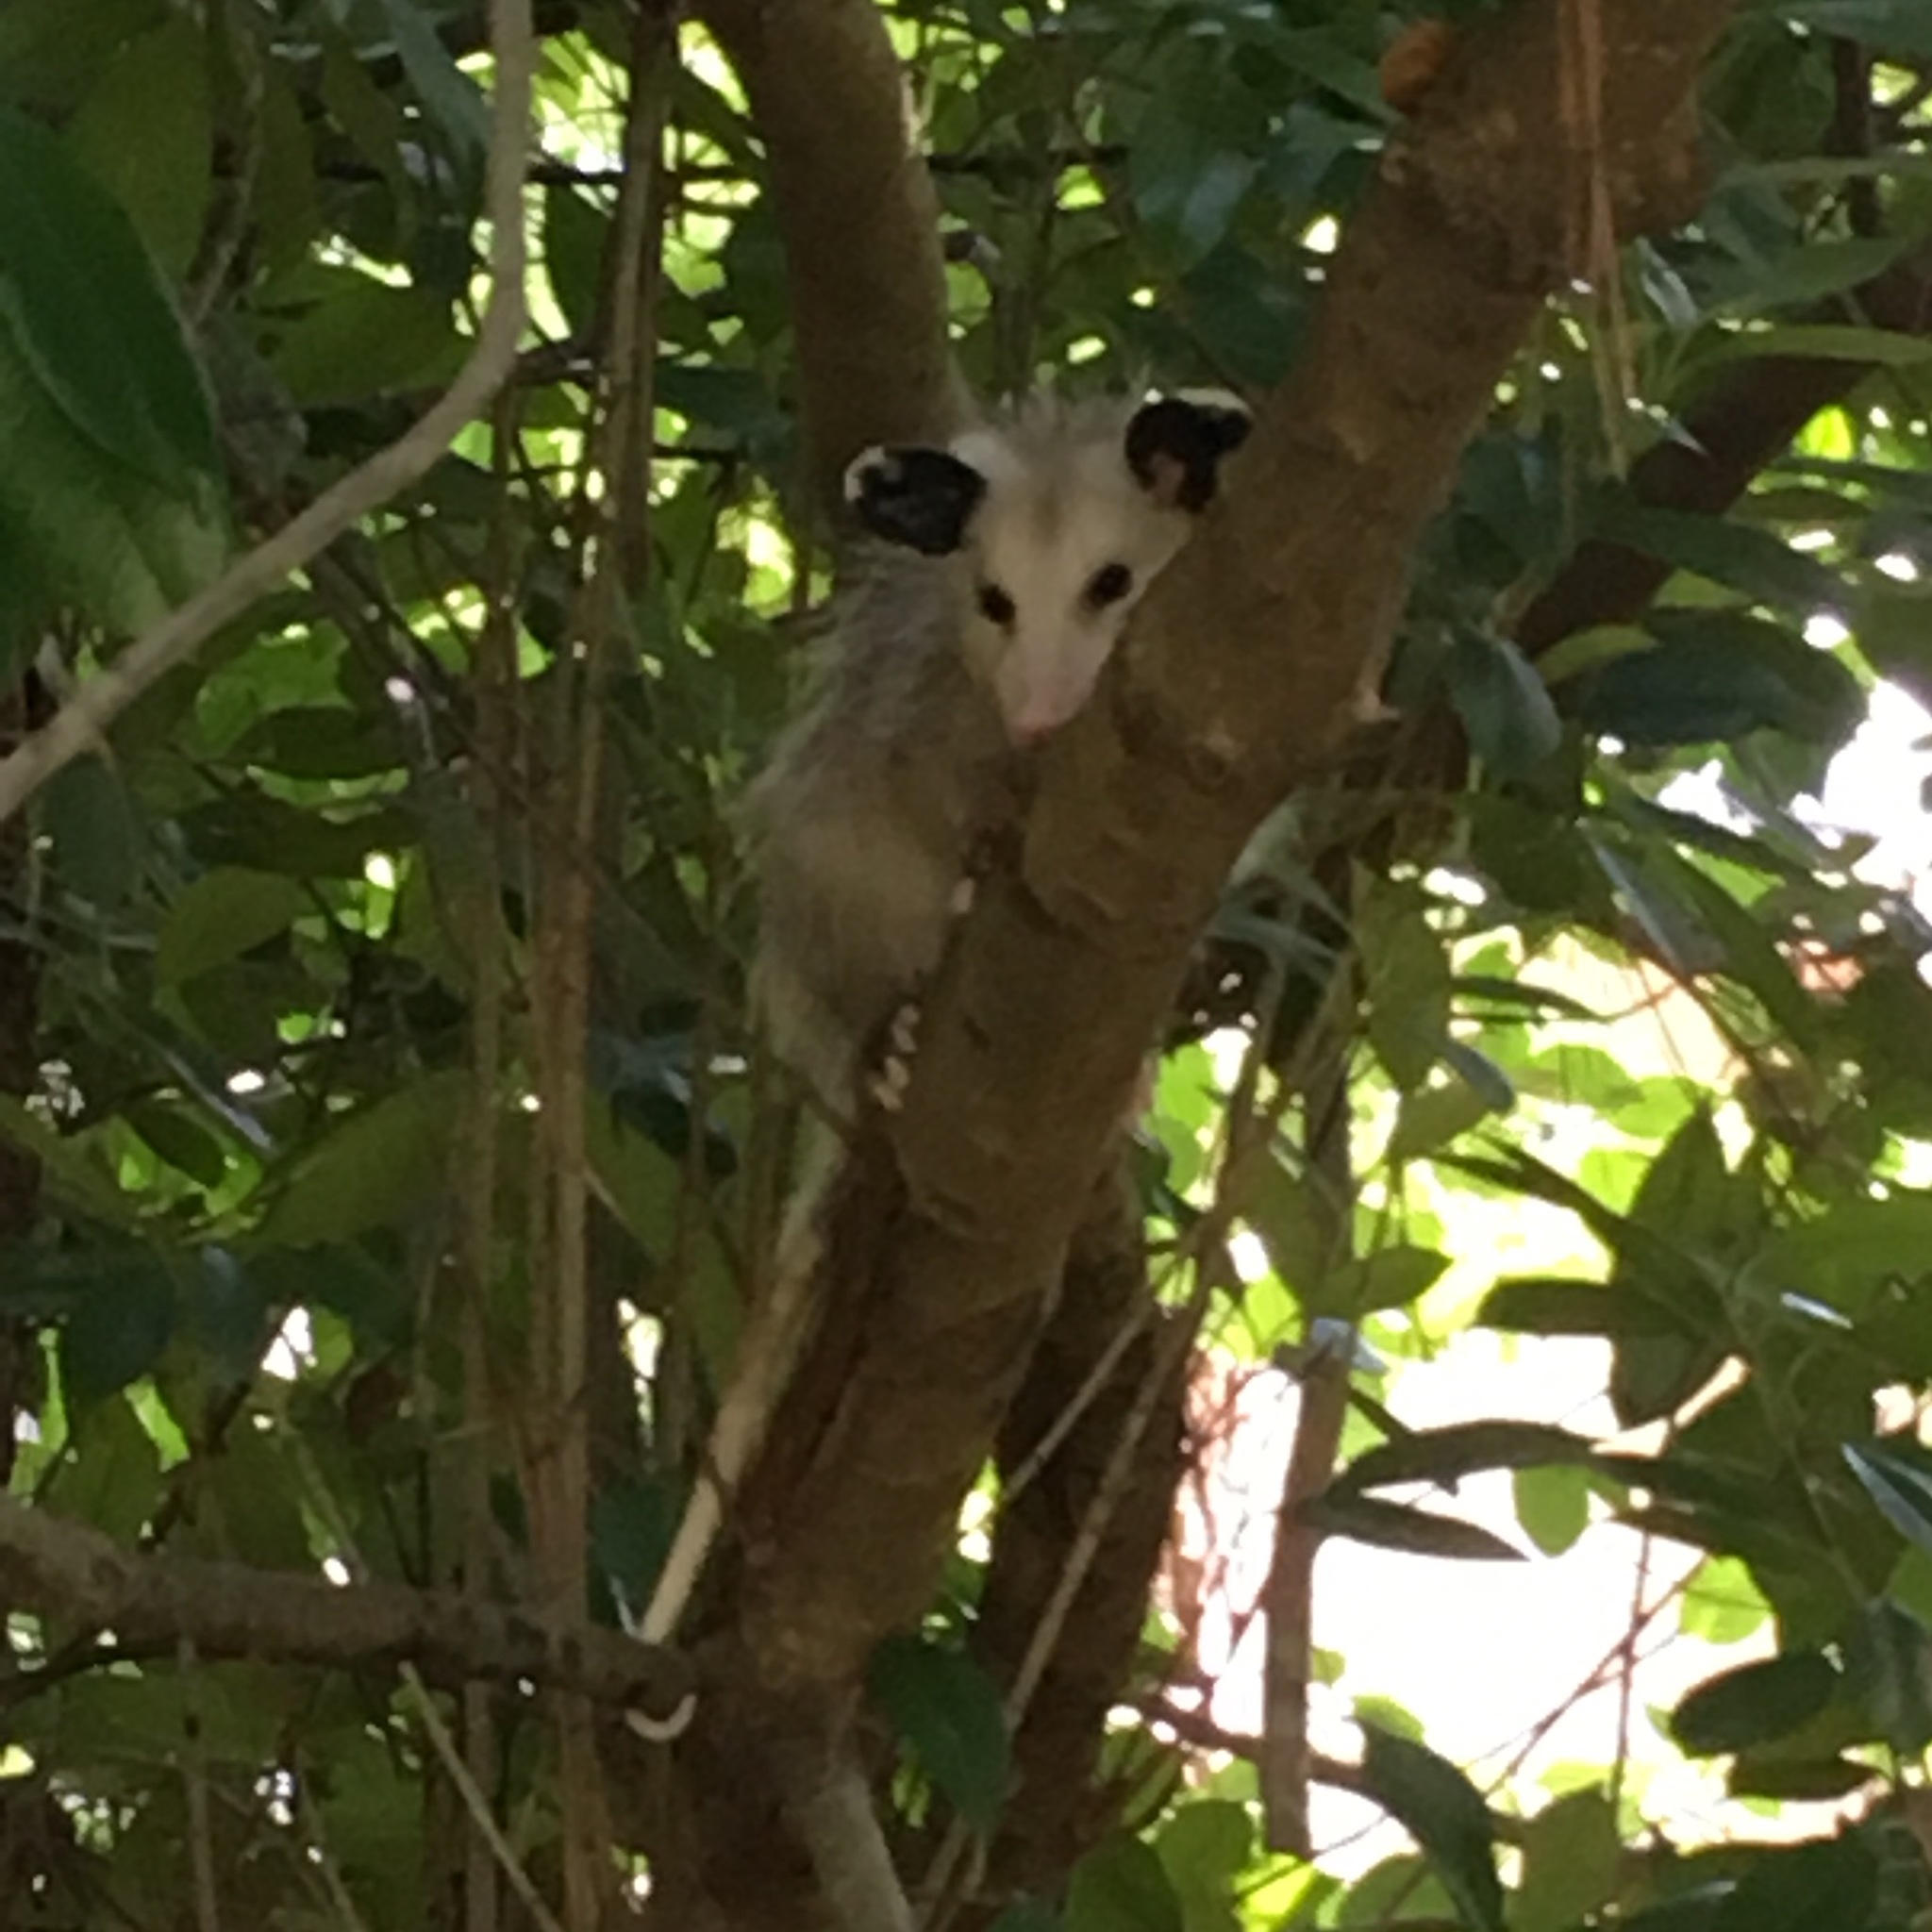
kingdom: Animalia
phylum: Chordata
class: Mammalia
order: Didelphimorphia
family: Didelphidae
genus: Didelphis
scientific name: Didelphis virginiana
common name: Virginia opossum
